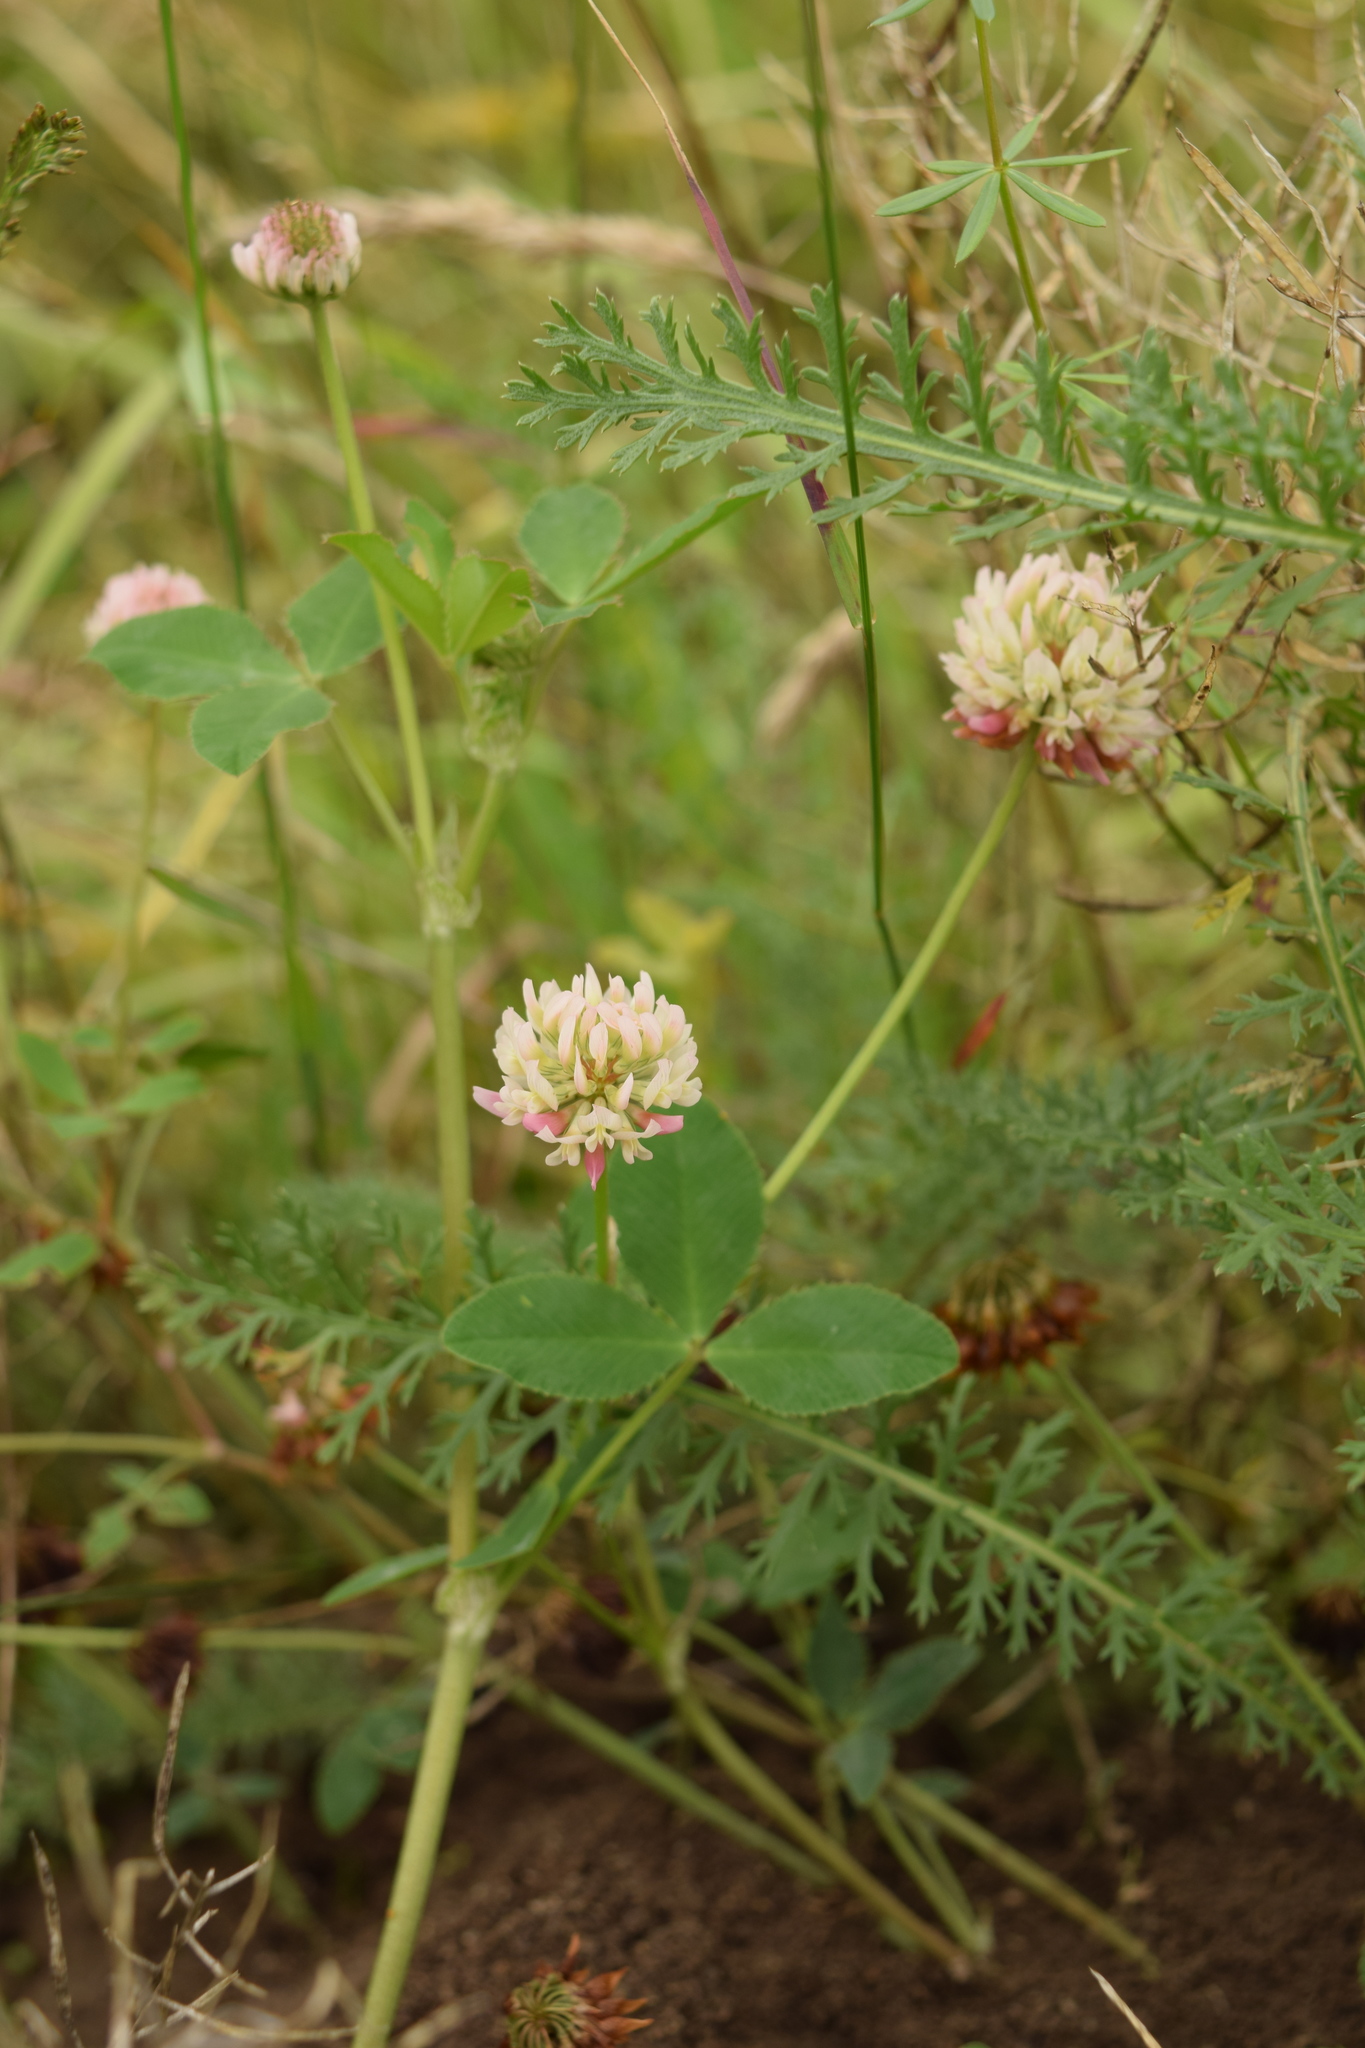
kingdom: Plantae
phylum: Tracheophyta
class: Magnoliopsida
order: Fabales
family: Fabaceae
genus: Trifolium
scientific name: Trifolium hybridum
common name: Alsike clover
